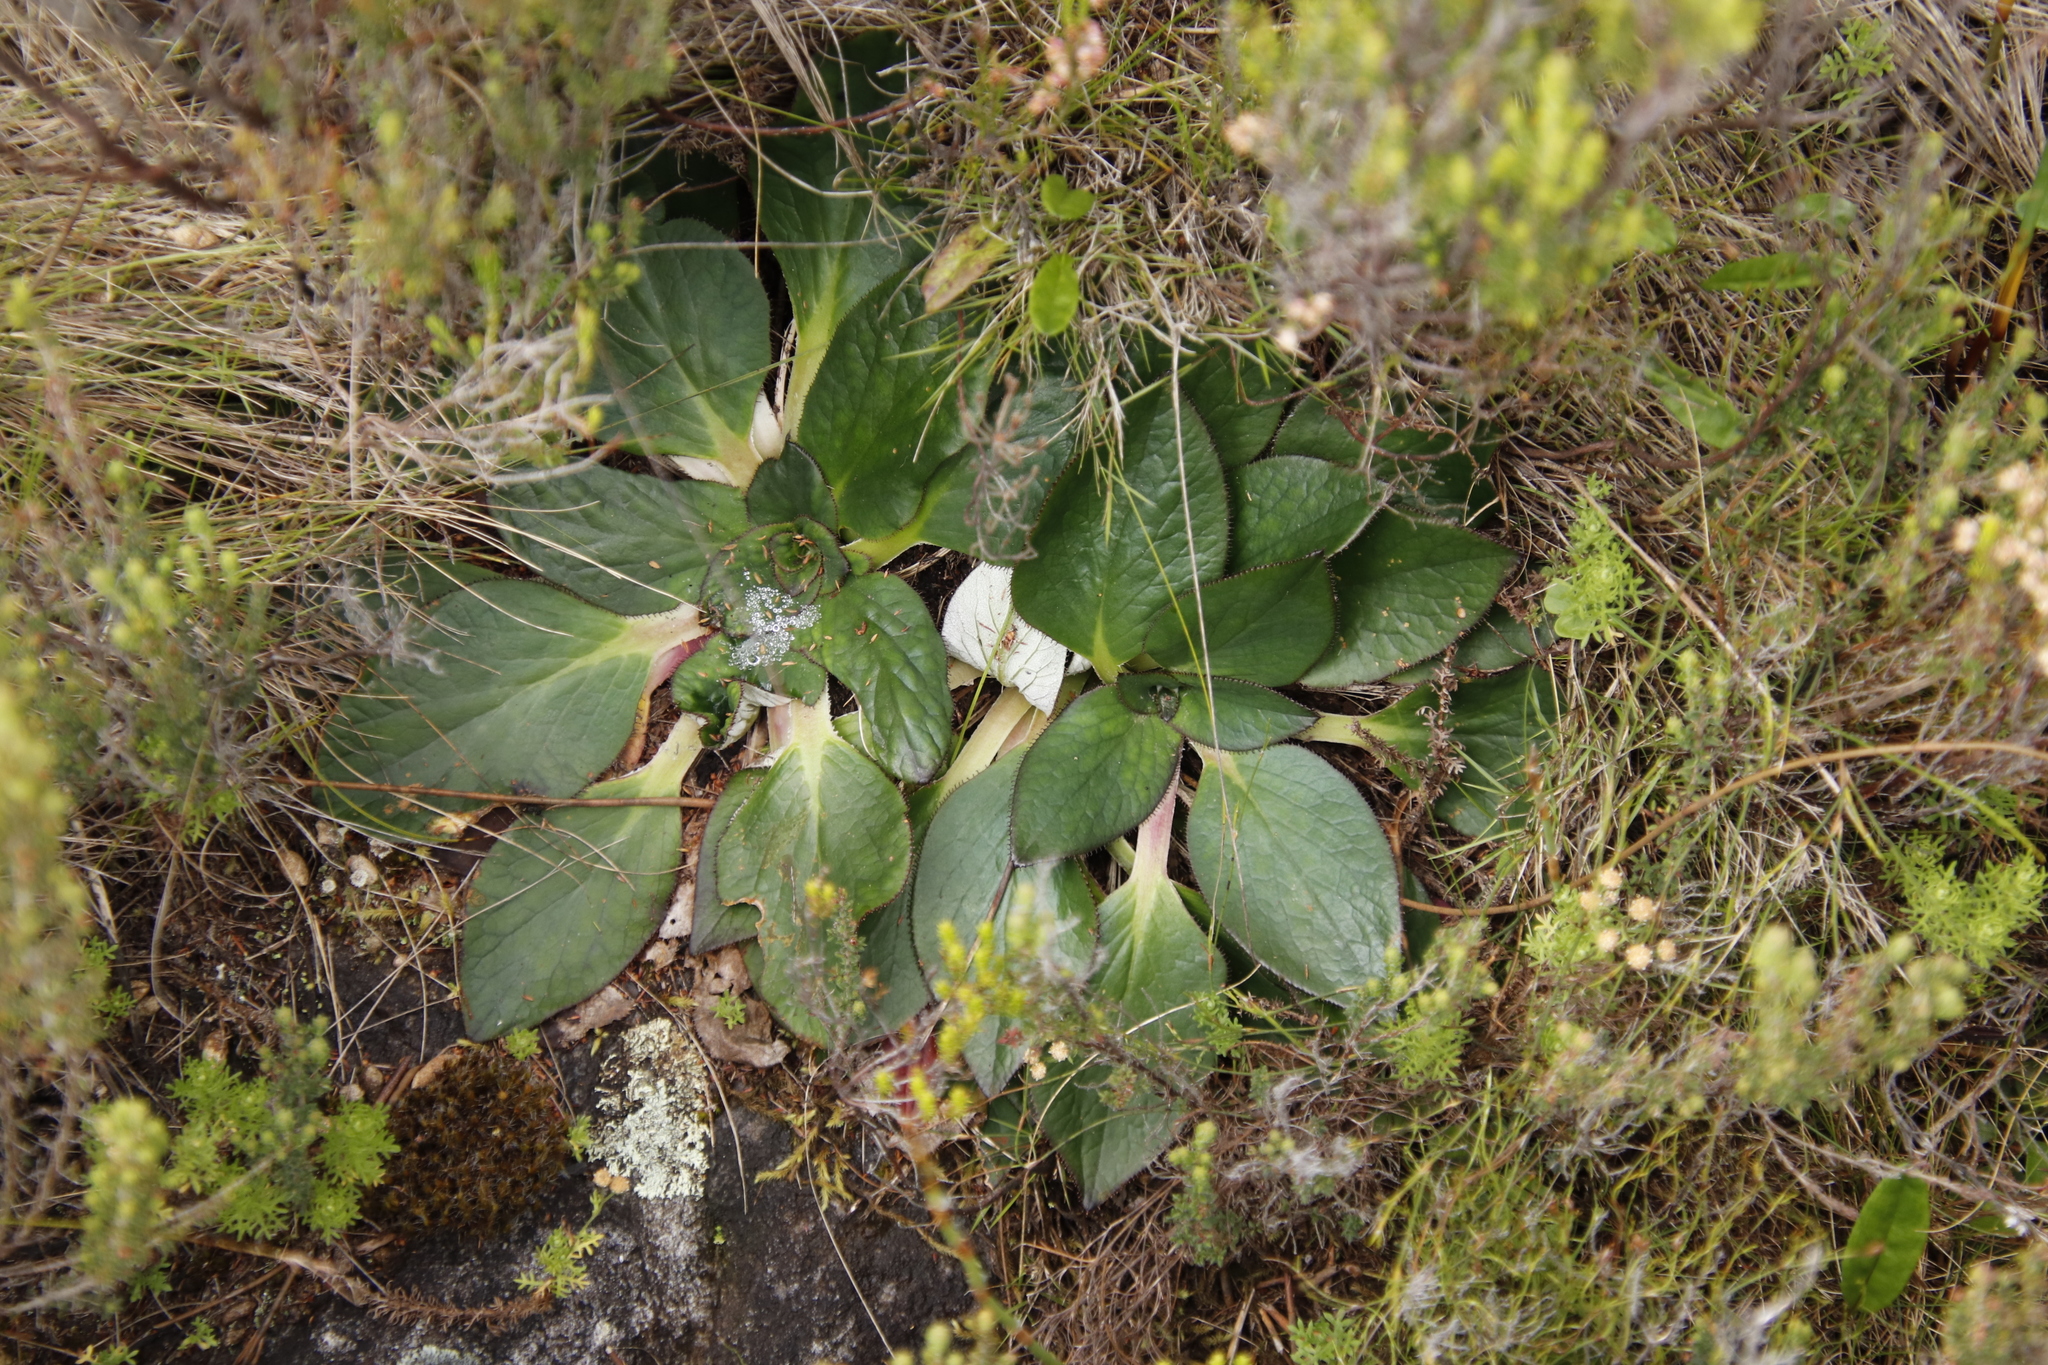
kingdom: Plantae
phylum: Tracheophyta
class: Magnoliopsida
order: Apiales
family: Apiaceae
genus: Hermas
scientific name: Hermas villosa
